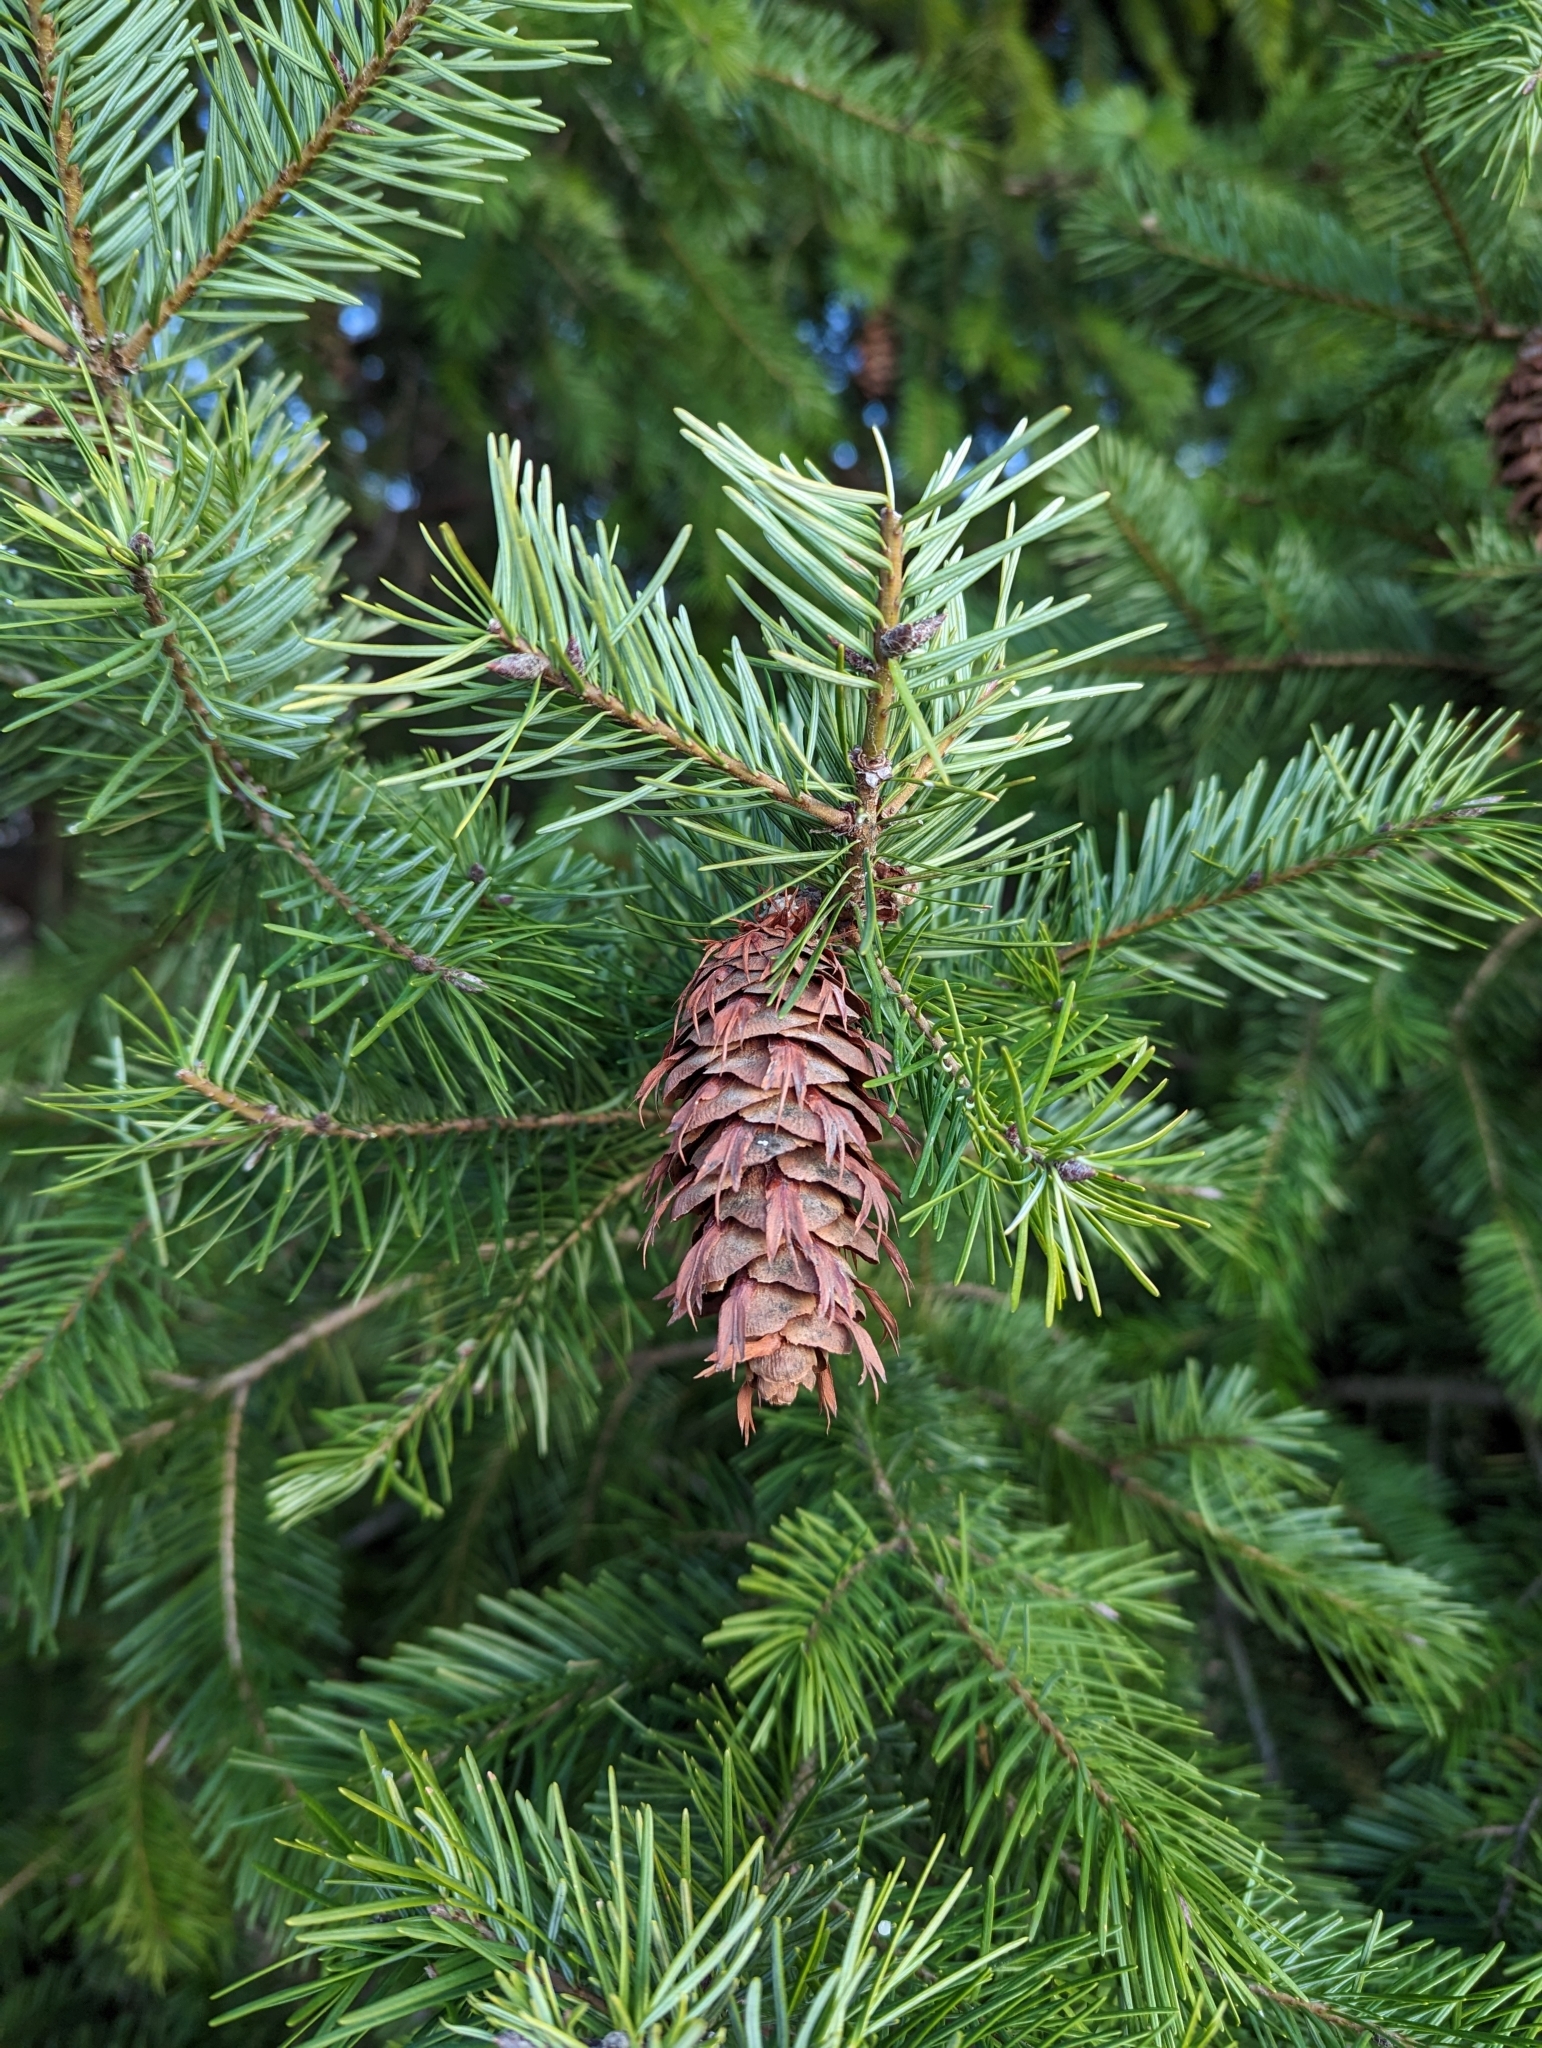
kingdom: Plantae
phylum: Tracheophyta
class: Pinopsida
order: Pinales
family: Pinaceae
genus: Pseudotsuga
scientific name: Pseudotsuga menziesii
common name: Douglas fir
